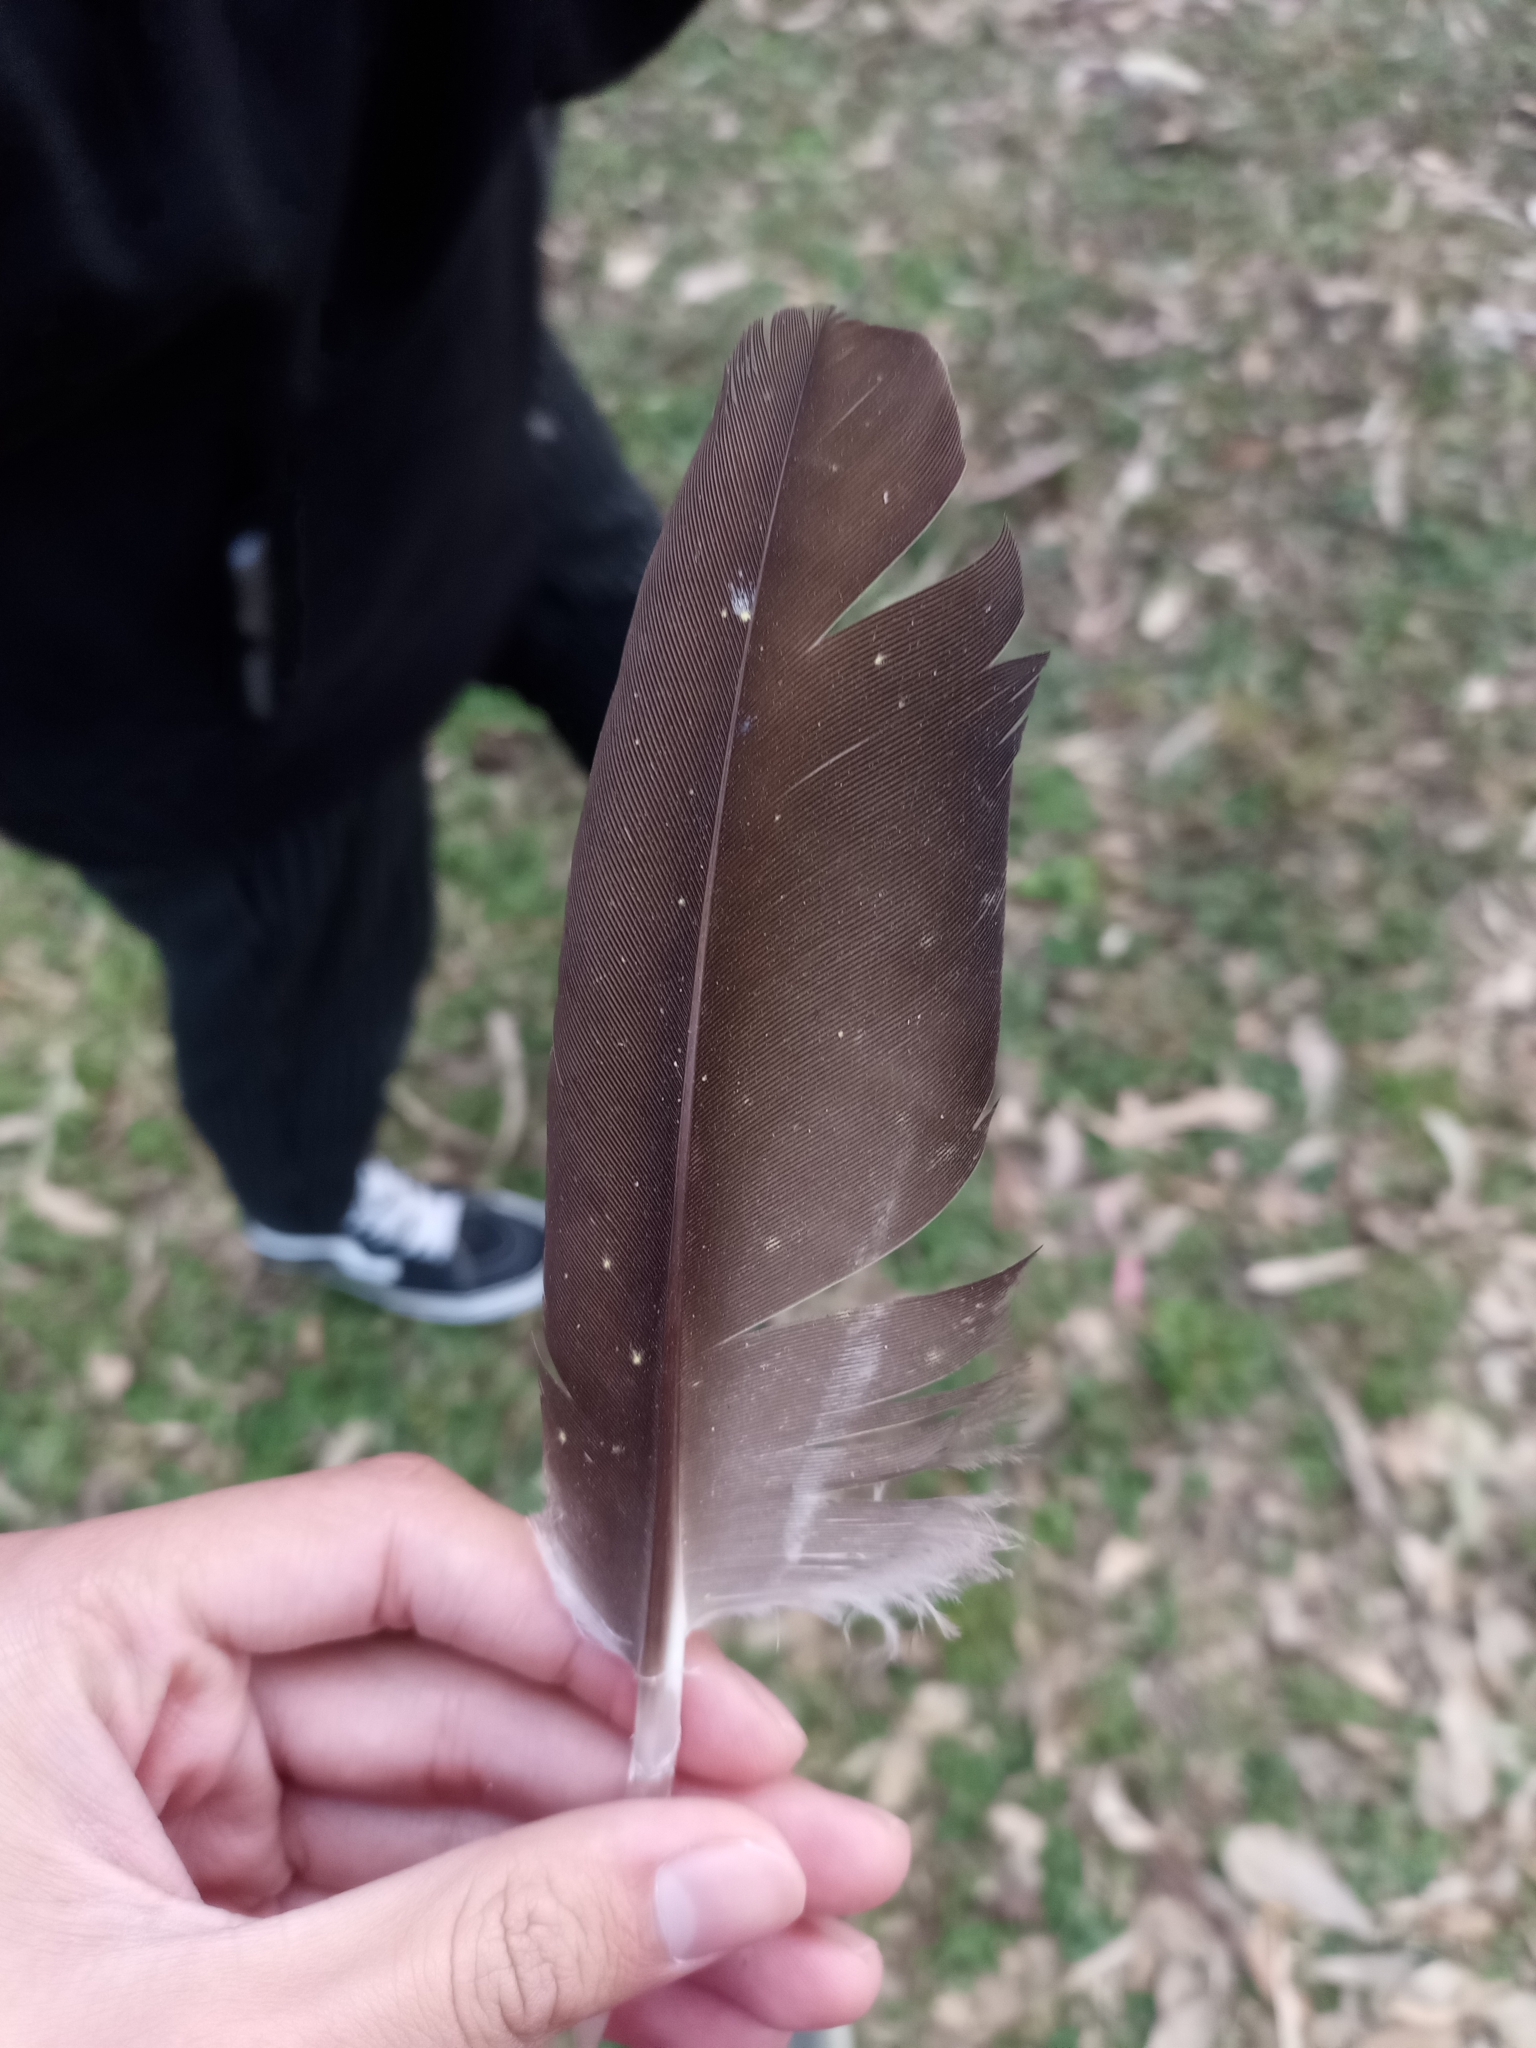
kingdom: Animalia
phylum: Chordata
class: Aves
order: Accipitriformes
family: Cathartidae
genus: Cathartes
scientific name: Cathartes aura
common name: Turkey vulture
